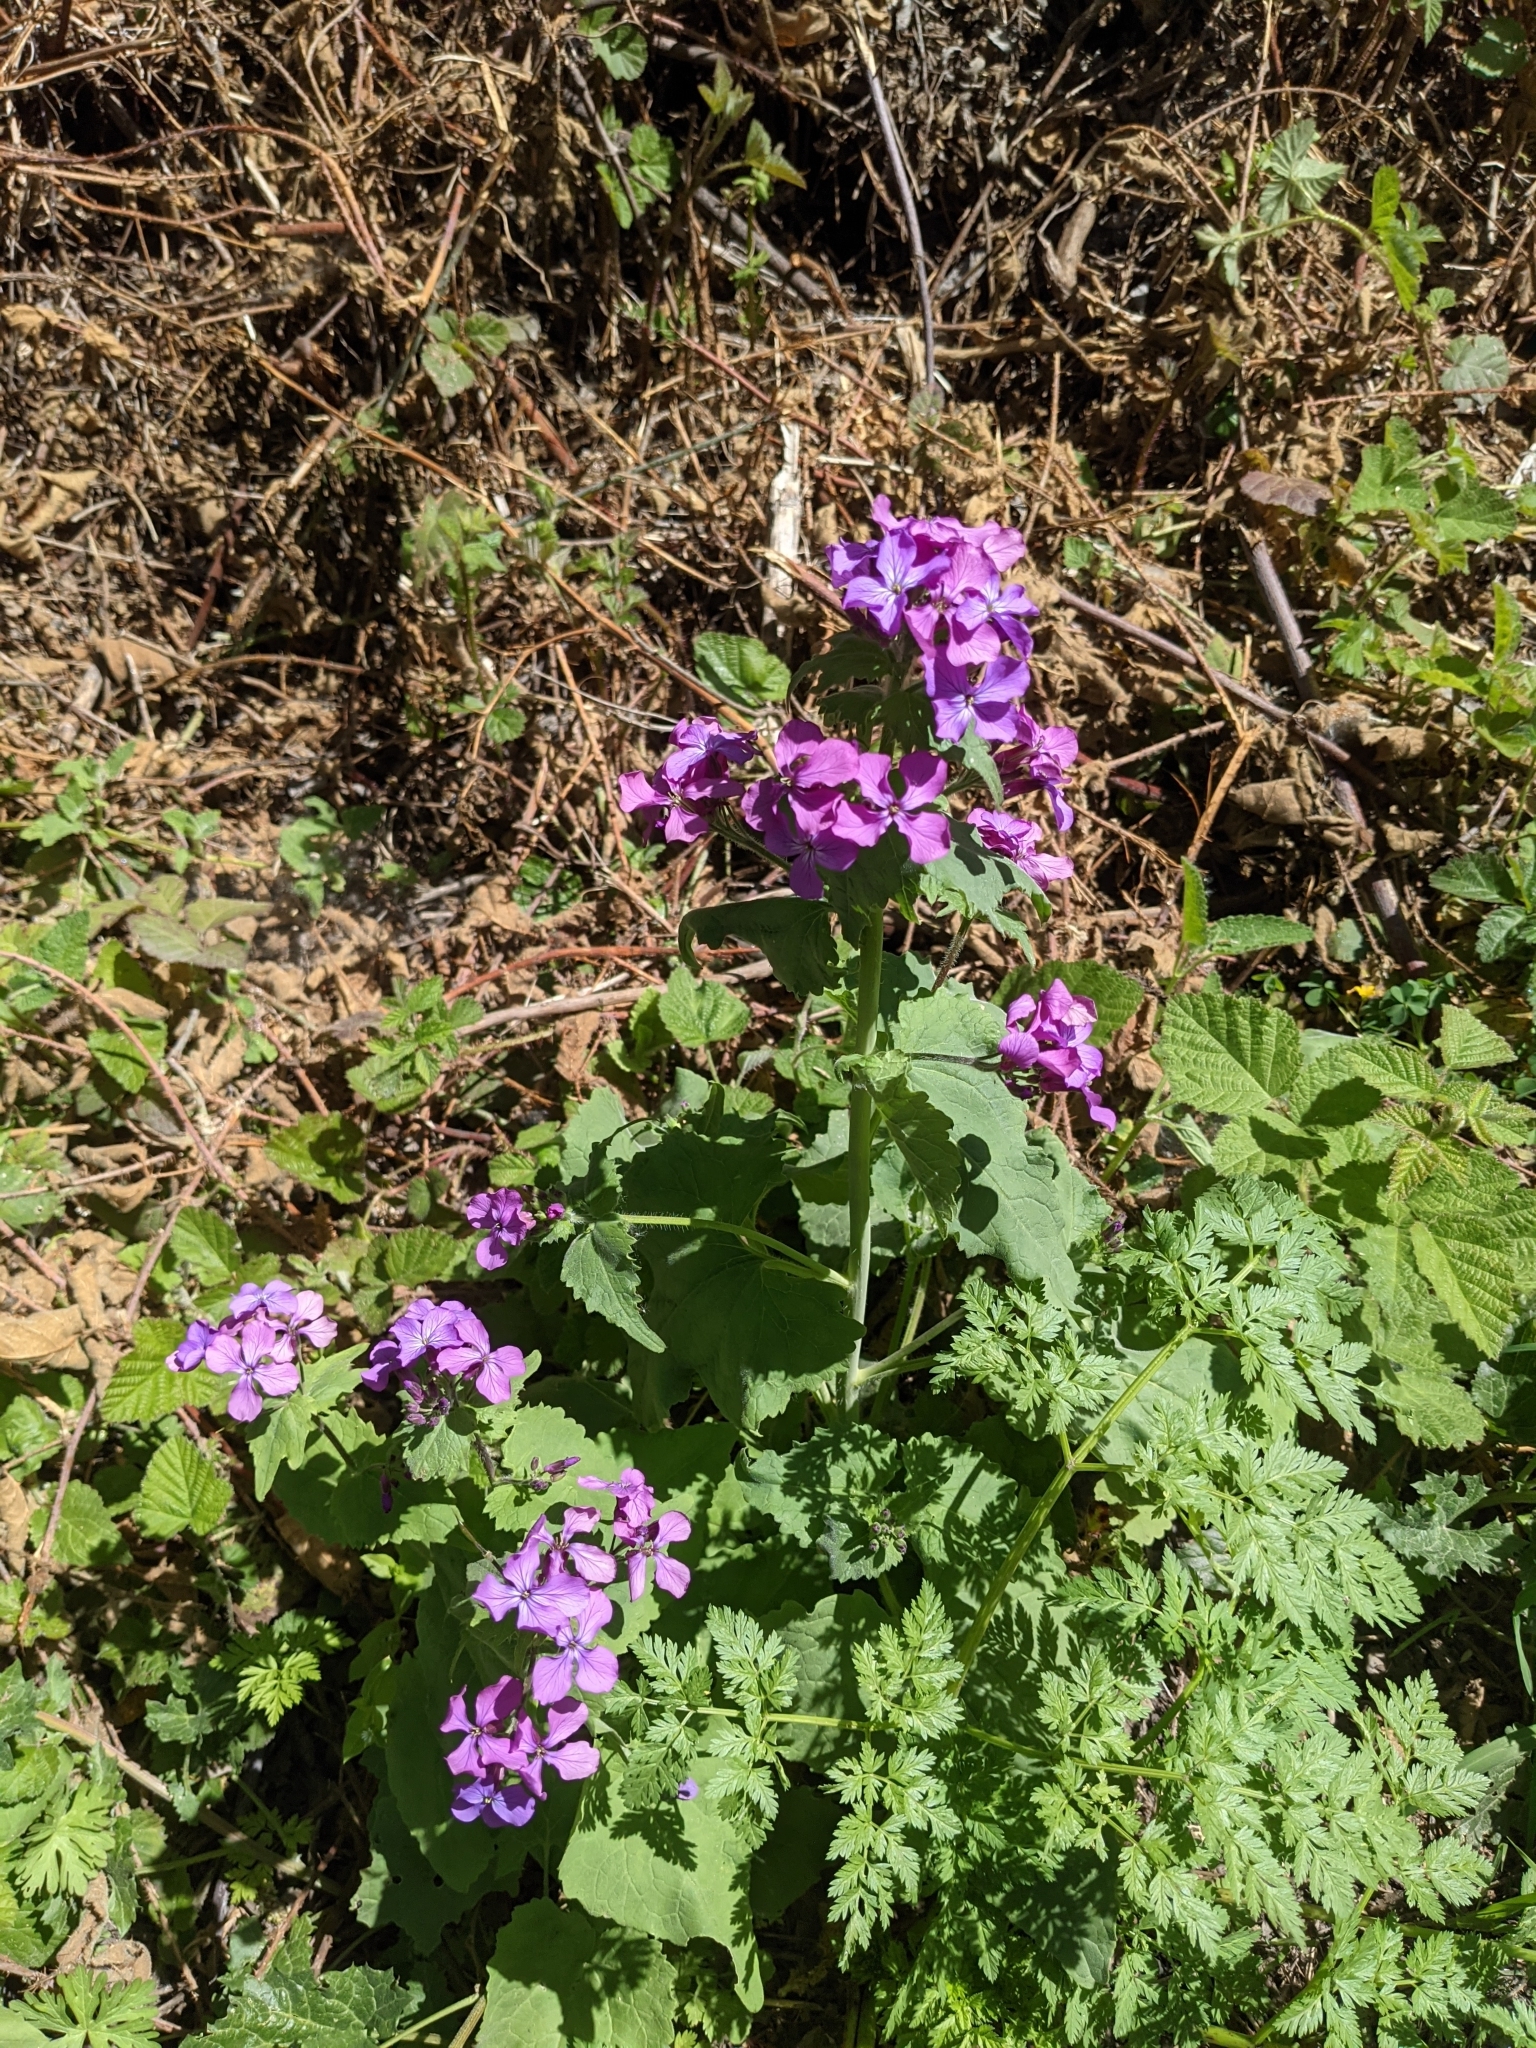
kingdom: Plantae
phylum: Tracheophyta
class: Magnoliopsida
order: Brassicales
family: Brassicaceae
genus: Lunaria
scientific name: Lunaria annua
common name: Honesty
